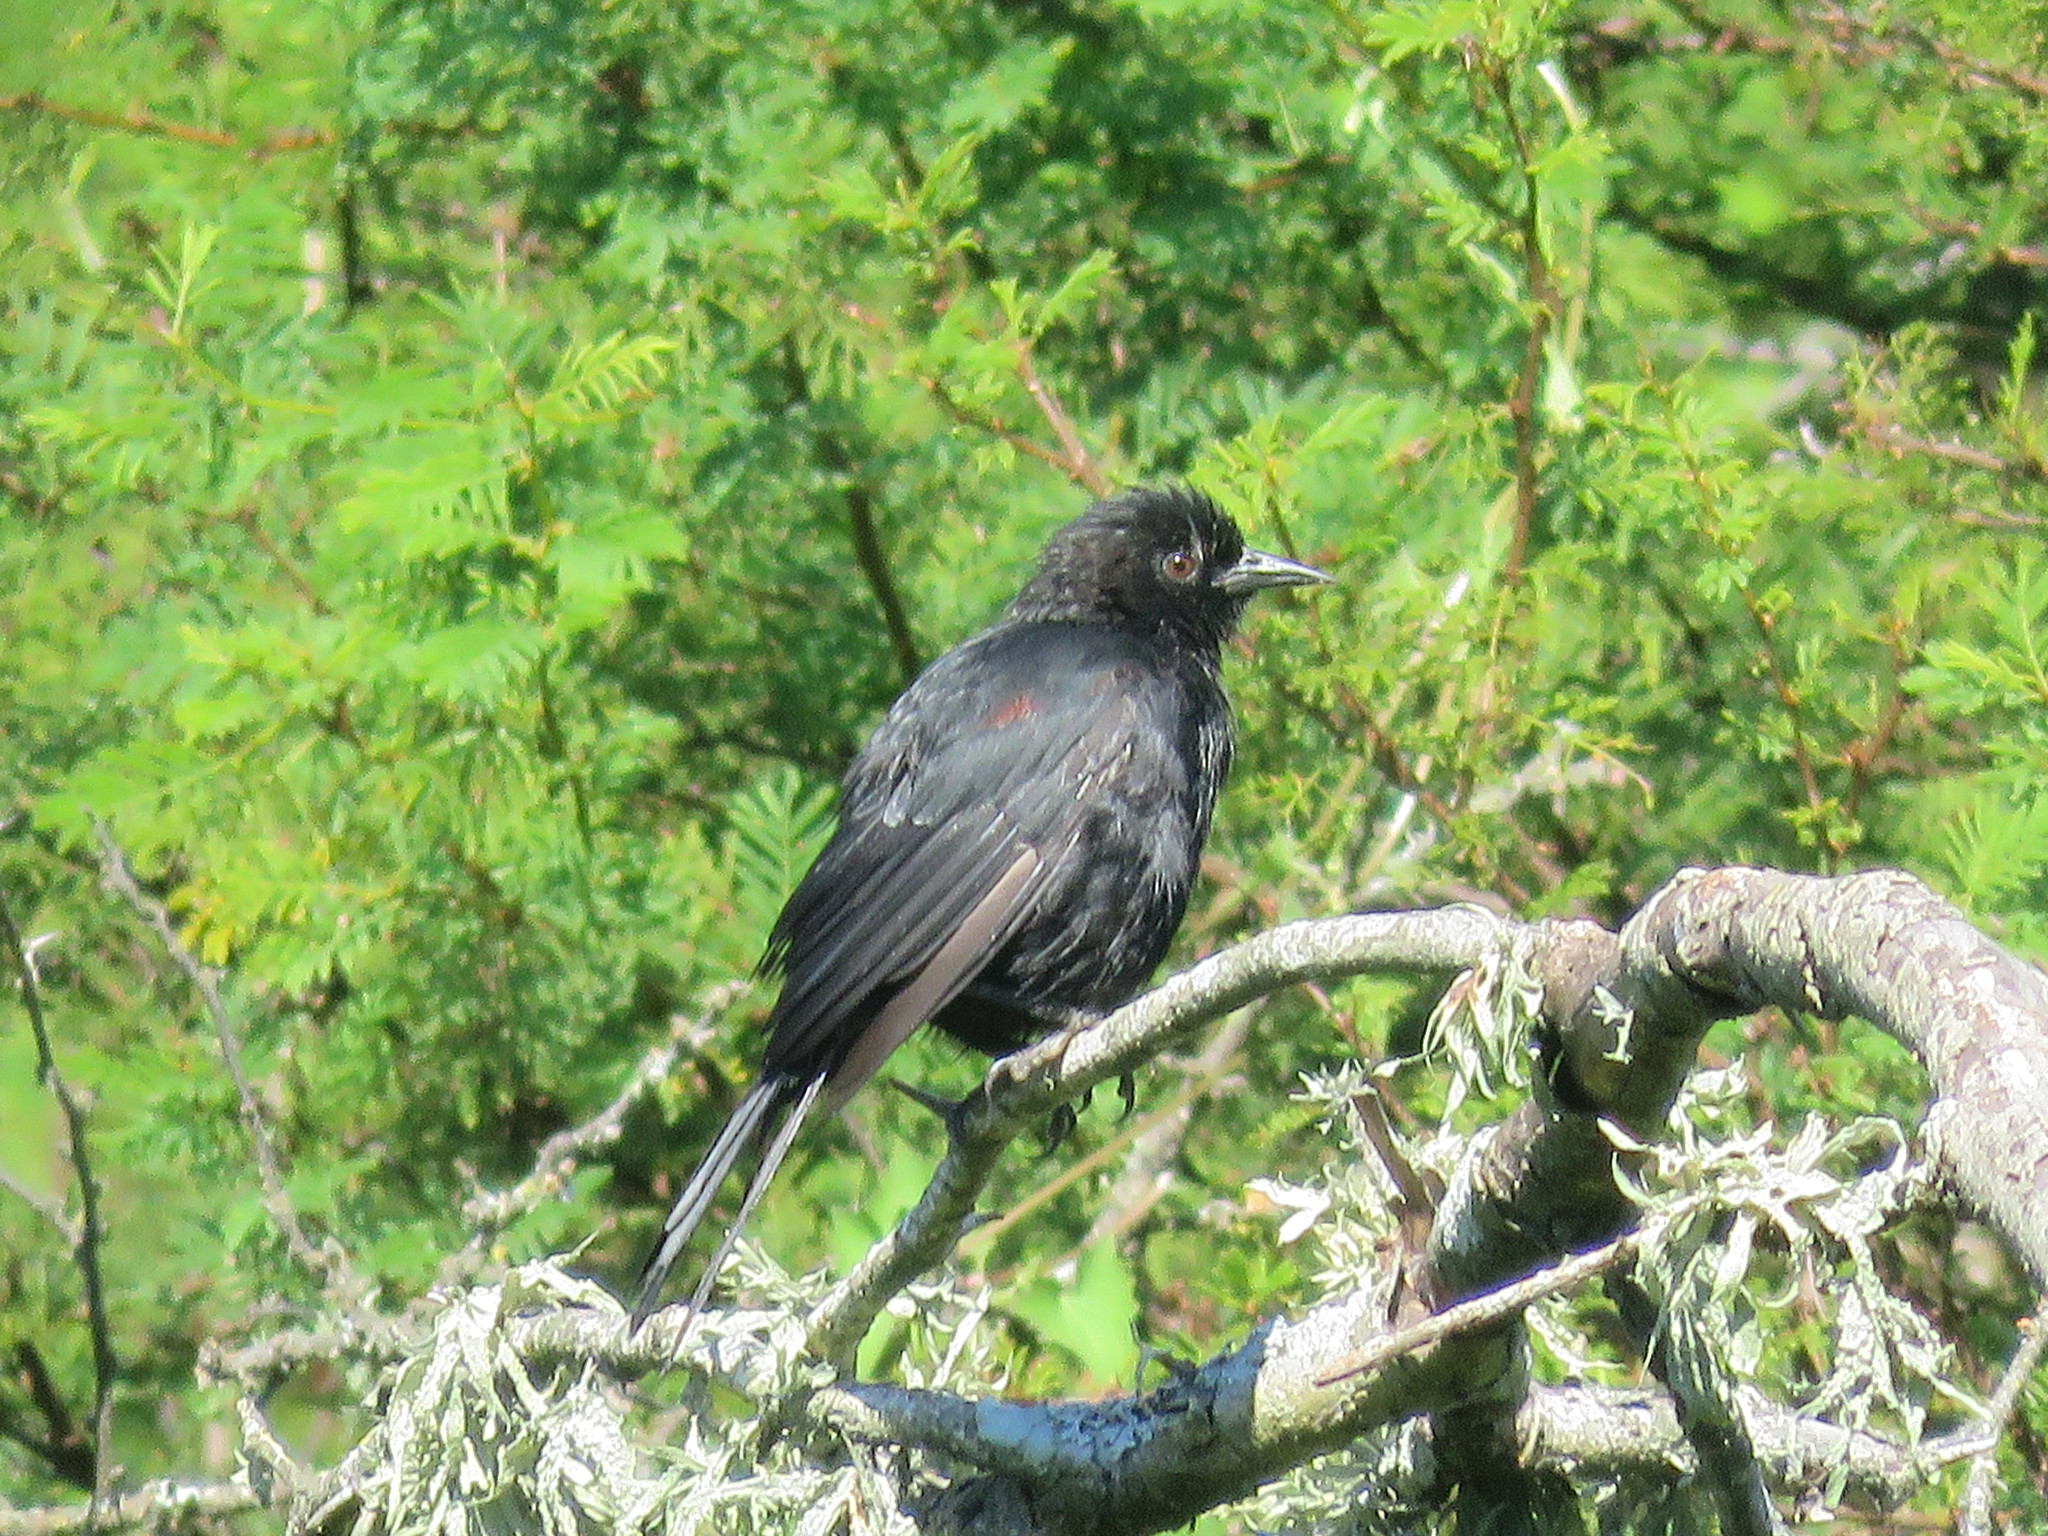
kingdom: Animalia
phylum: Chordata
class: Aves
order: Passeriformes
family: Icteridae
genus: Icterus
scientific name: Icterus cayanensis
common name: Epaulet oriole
